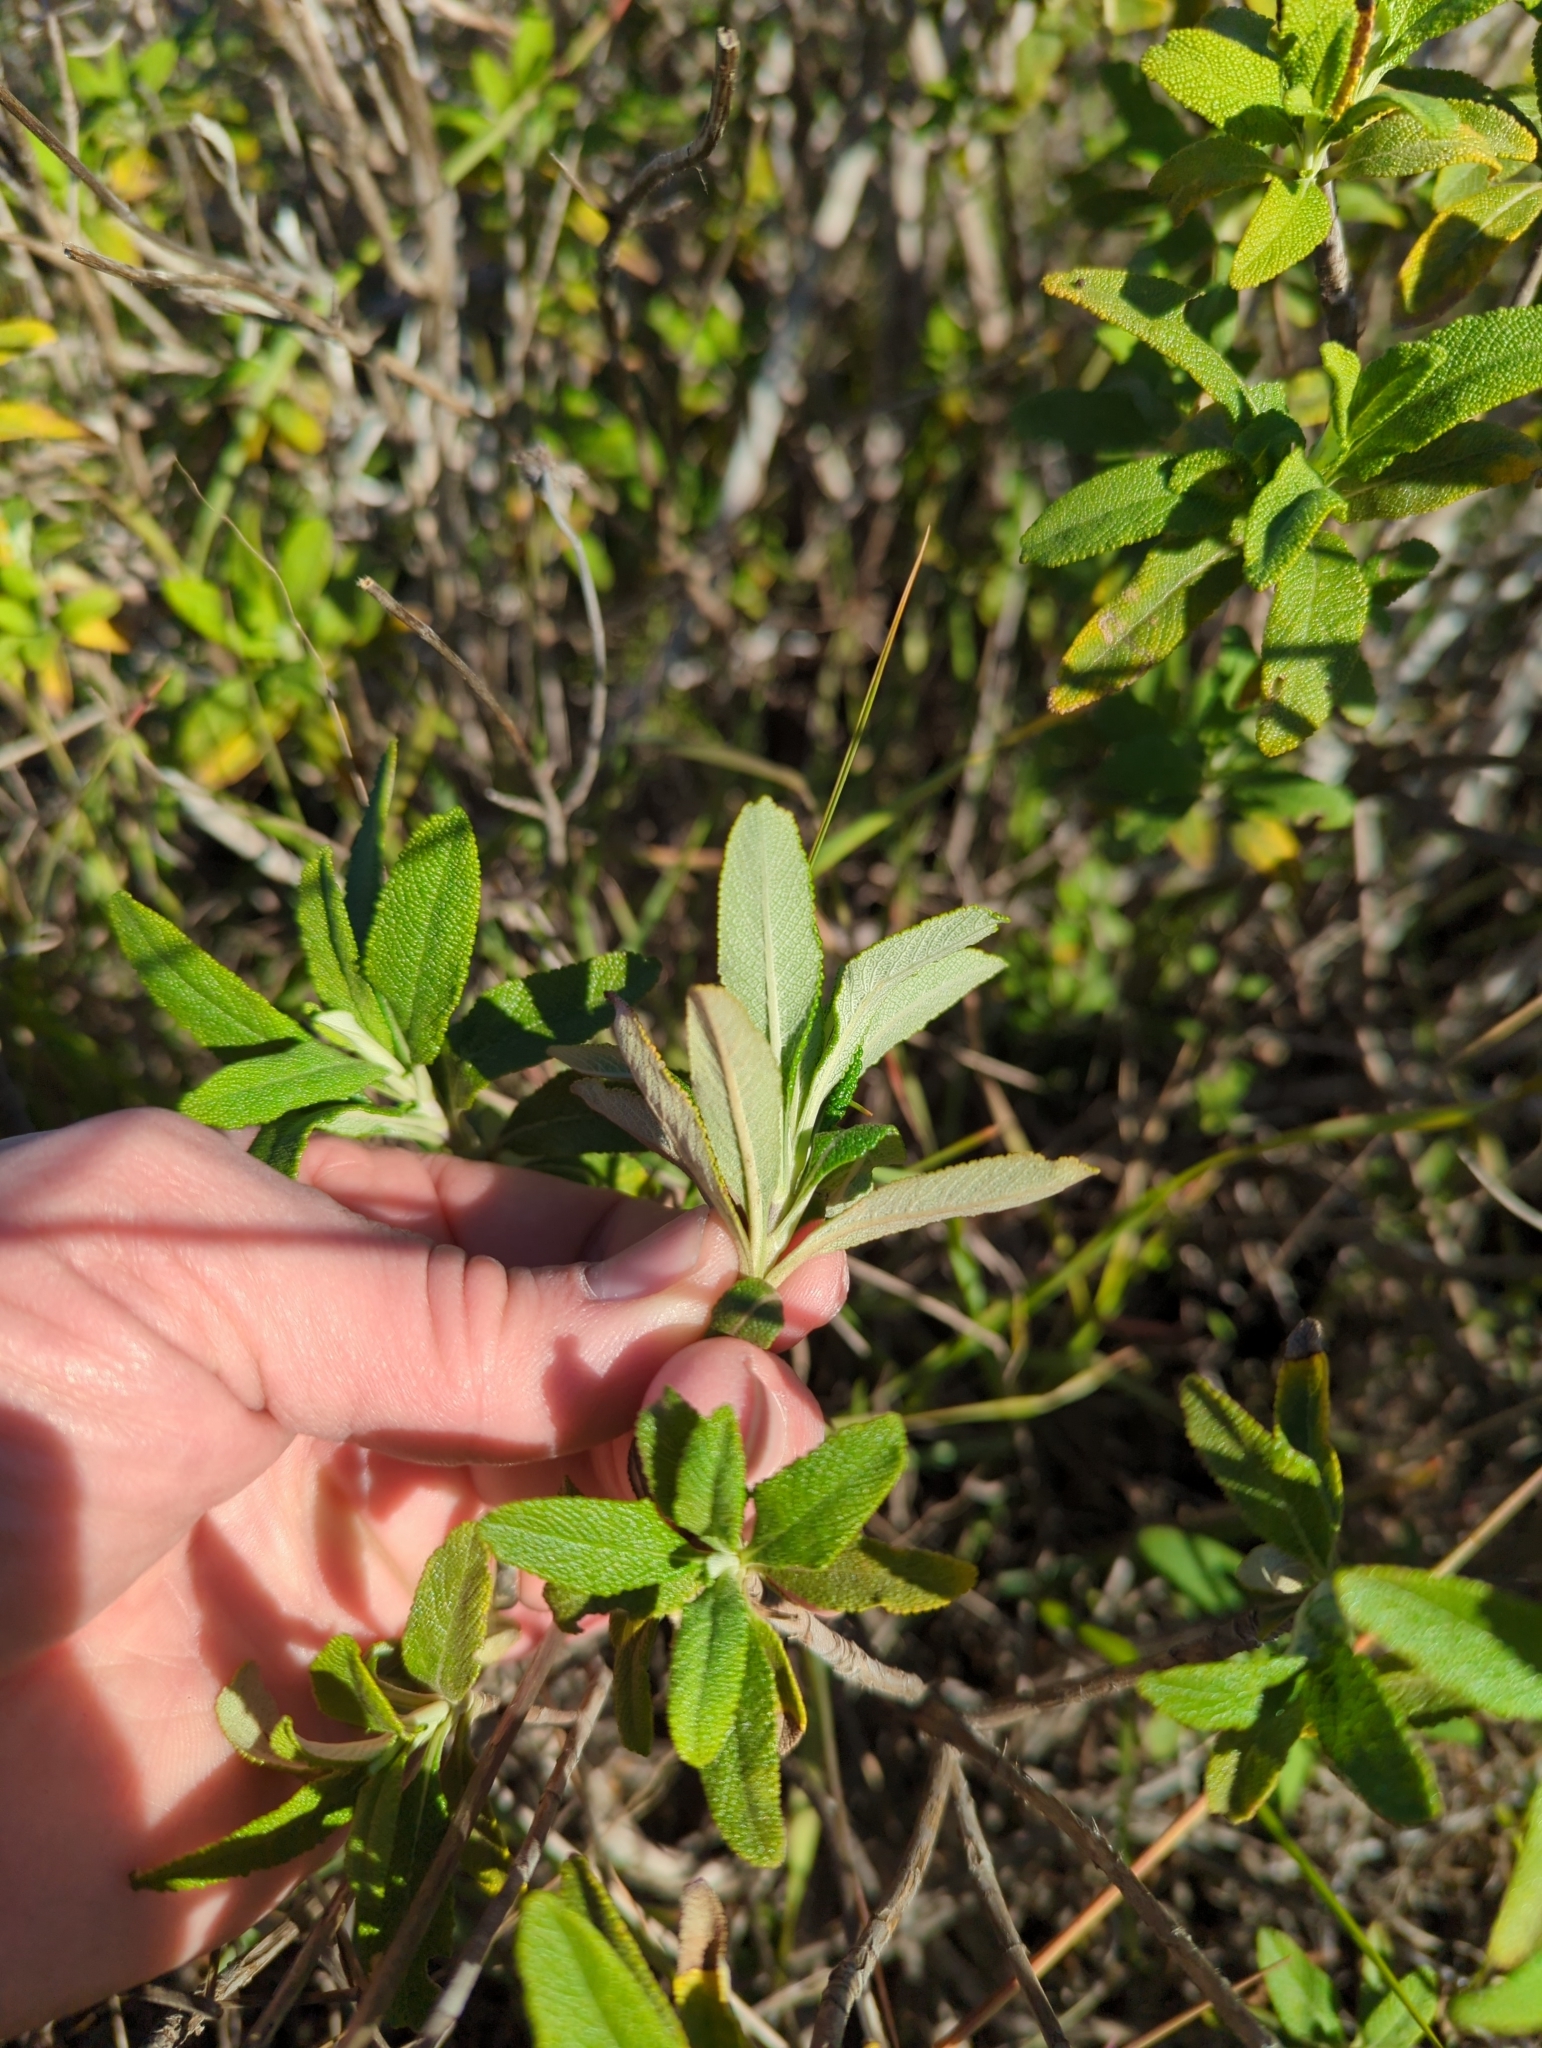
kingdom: Plantae
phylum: Tracheophyta
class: Magnoliopsida
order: Lamiales
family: Lamiaceae
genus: Salvia
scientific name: Salvia mellifera
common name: Black sage
